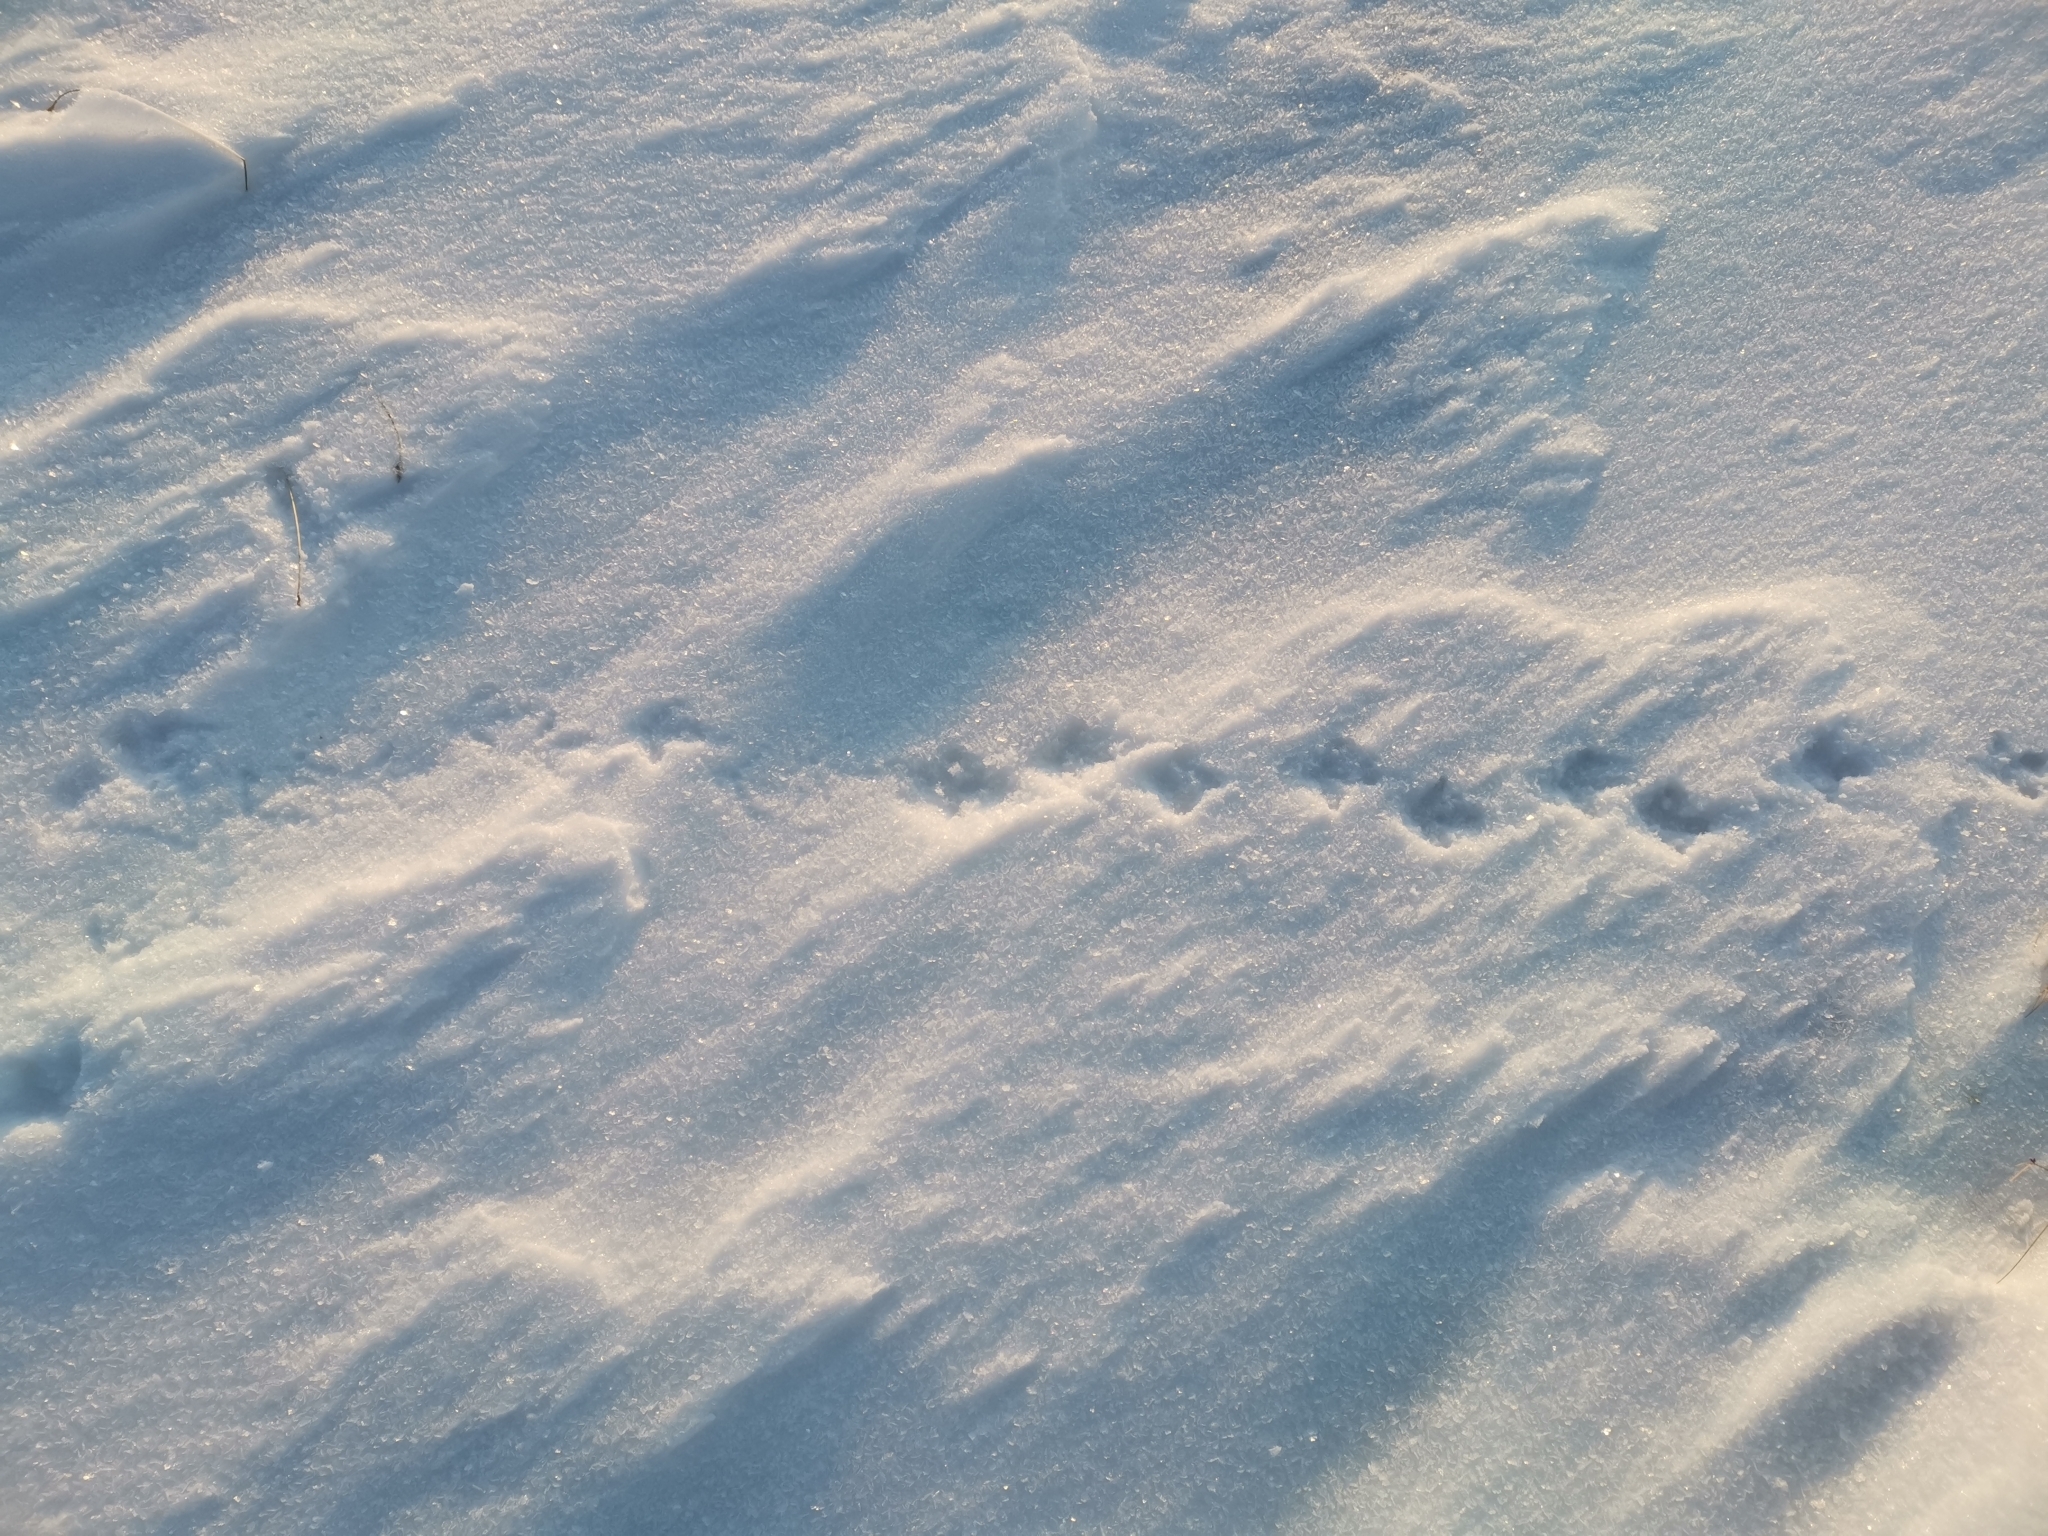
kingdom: Animalia
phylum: Chordata
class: Aves
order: Galliformes
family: Phasianidae
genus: Lagopus
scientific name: Lagopus muta
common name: Rock ptarmigan
